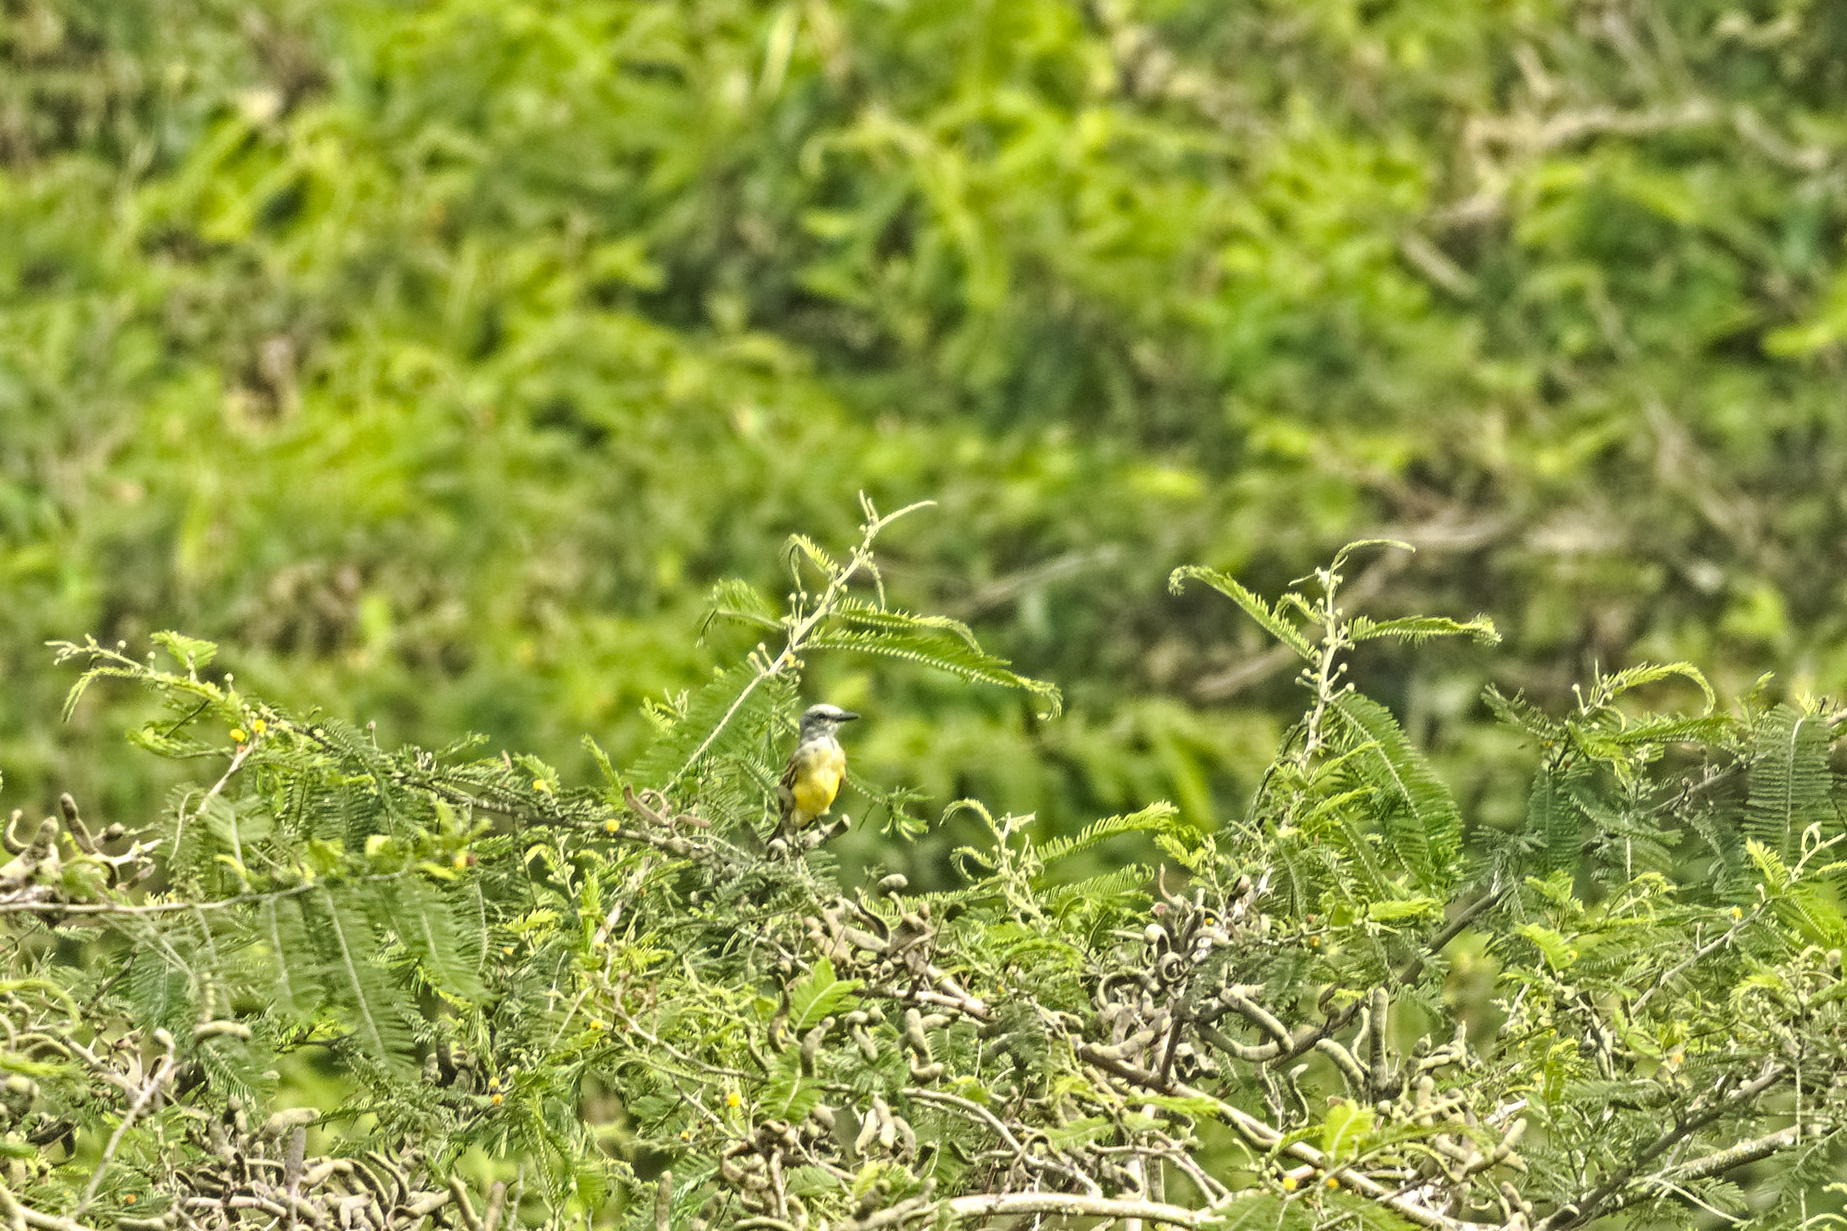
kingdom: Animalia
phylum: Chordata
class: Aves
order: Passeriformes
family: Tyrannidae
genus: Tyrannus
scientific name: Tyrannus melancholicus
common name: Tropical kingbird
